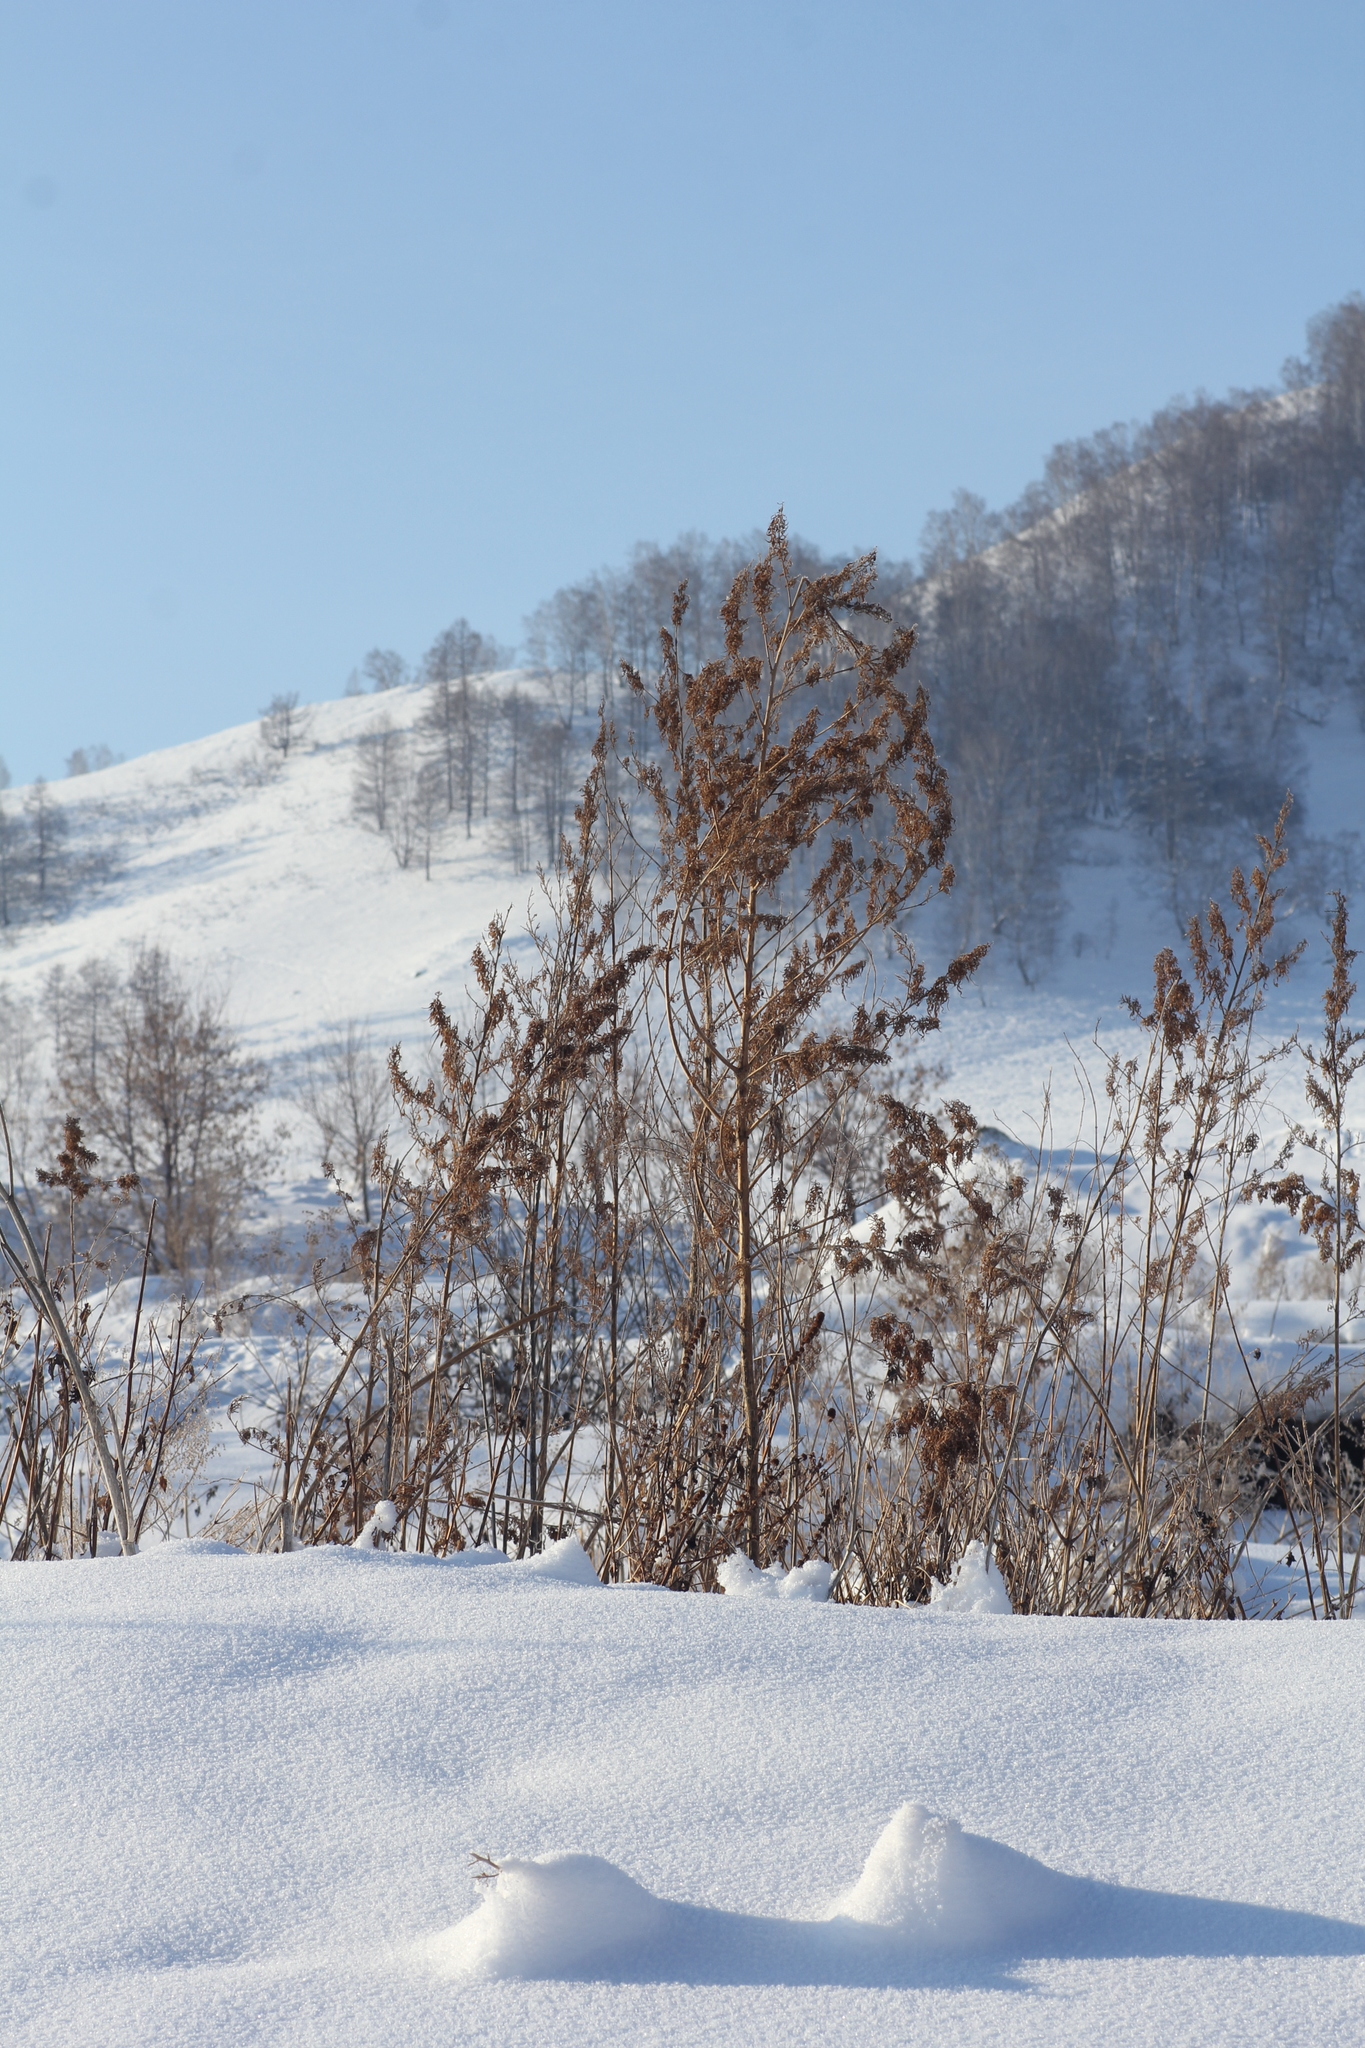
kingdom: Plantae
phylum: Tracheophyta
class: Magnoliopsida
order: Rosales
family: Cannabaceae
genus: Cannabis
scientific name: Cannabis sativa
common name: Hemp
